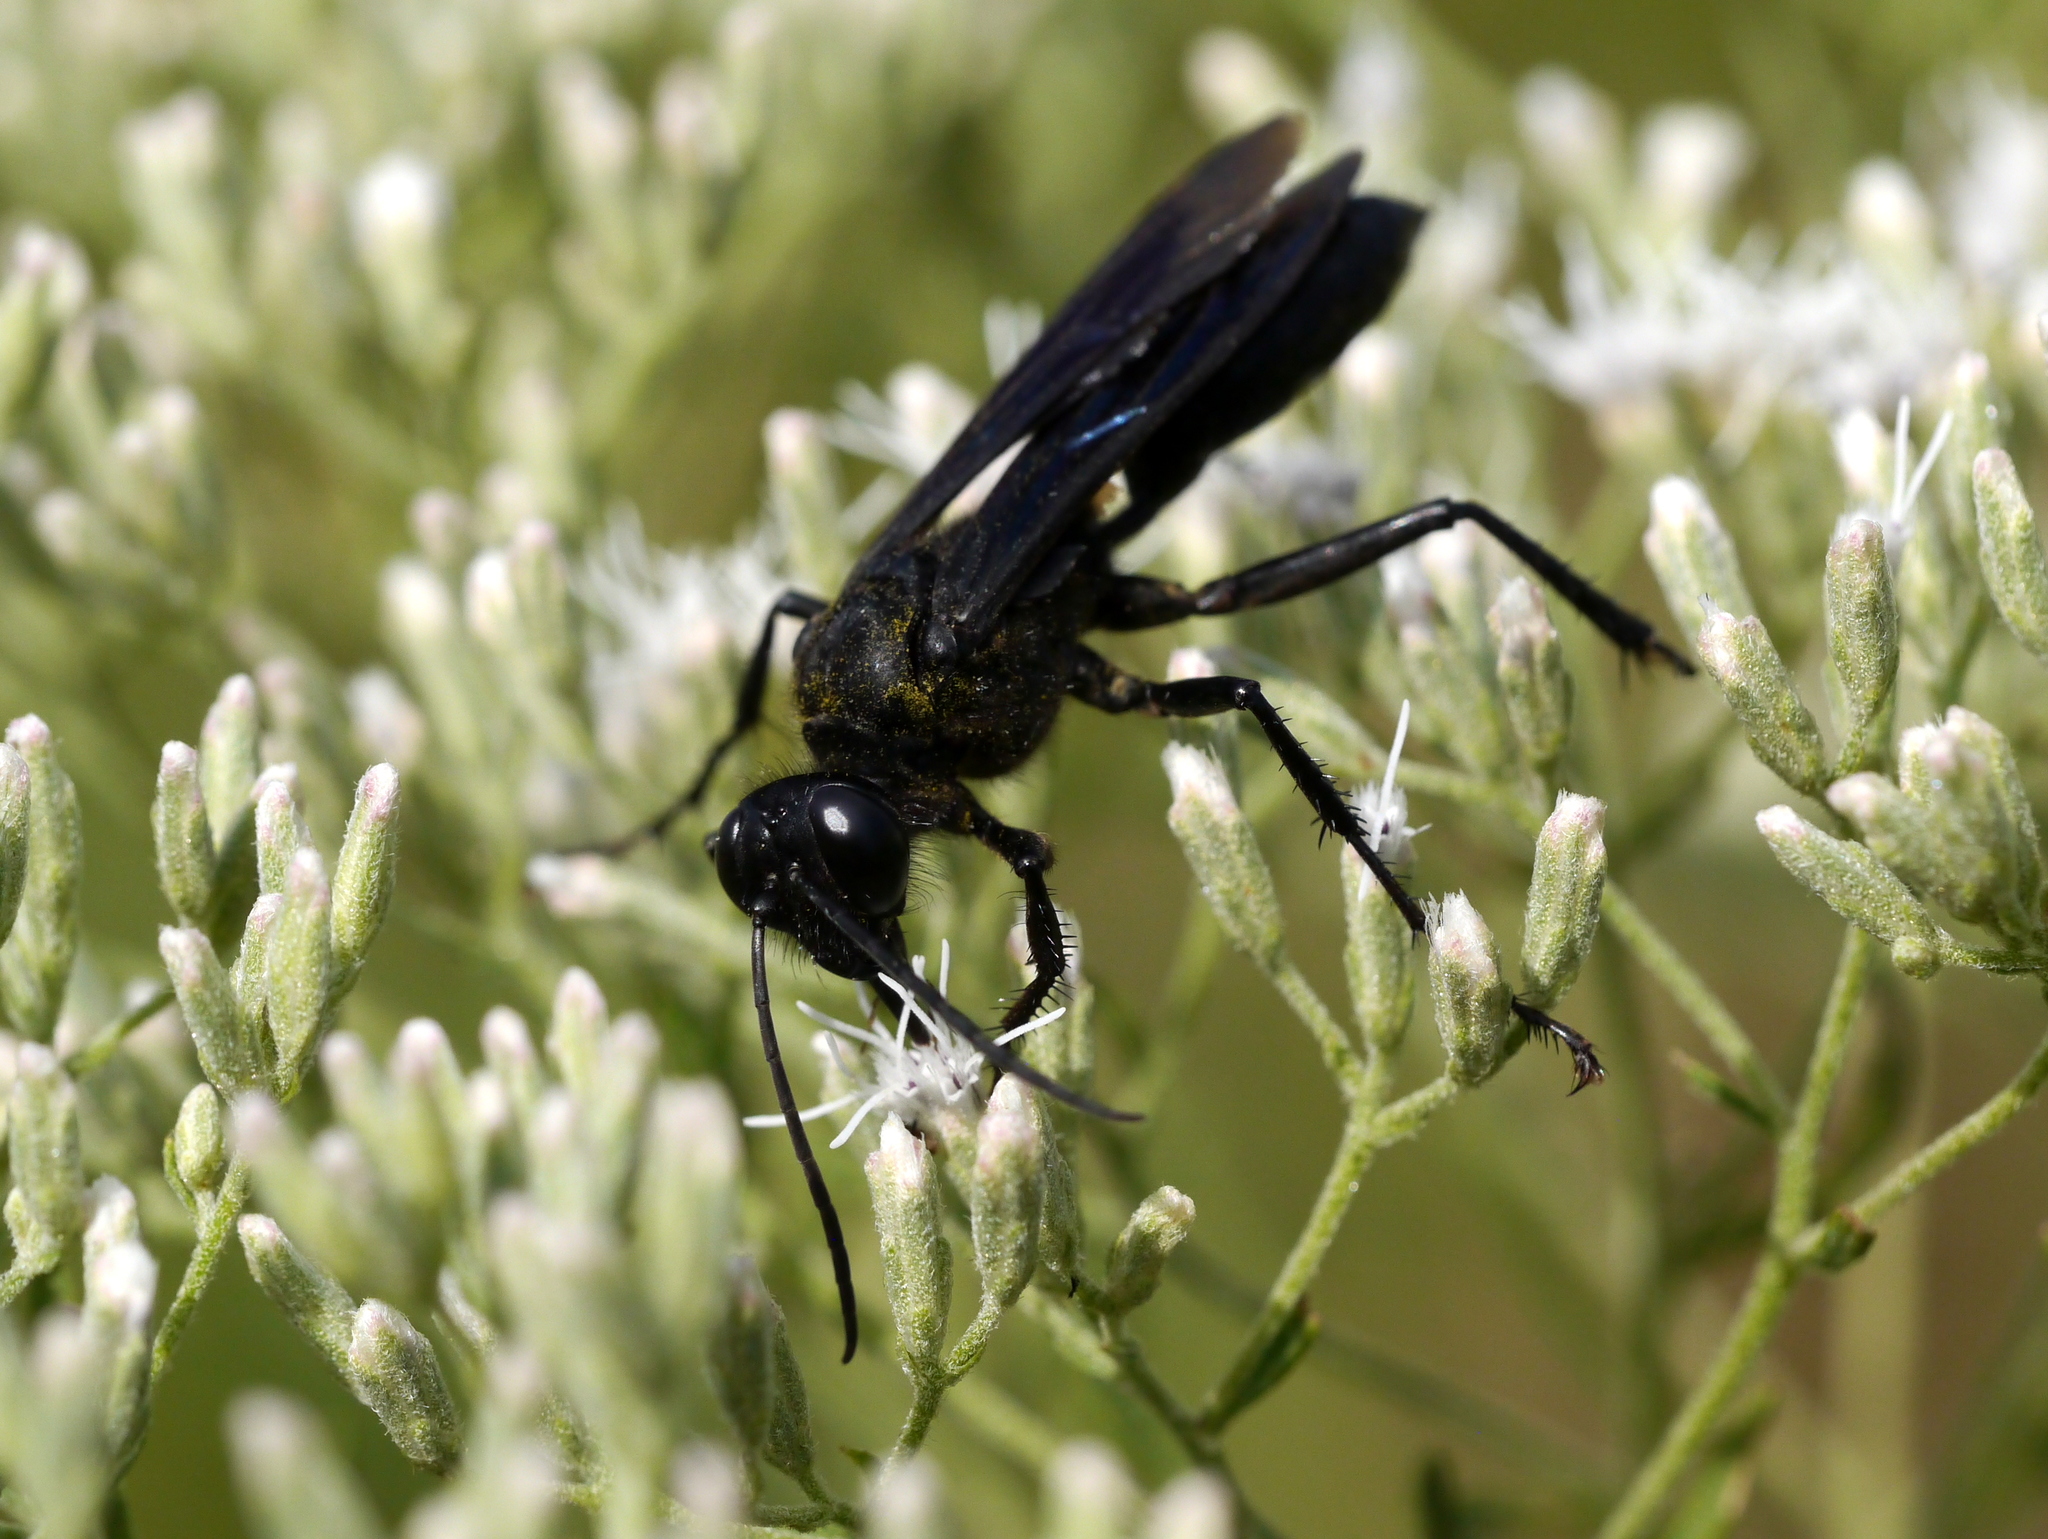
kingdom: Animalia
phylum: Arthropoda
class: Insecta
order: Hymenoptera
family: Sphecidae
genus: Sphex
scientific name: Sphex pensylvanicus
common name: Great black digger wasp
